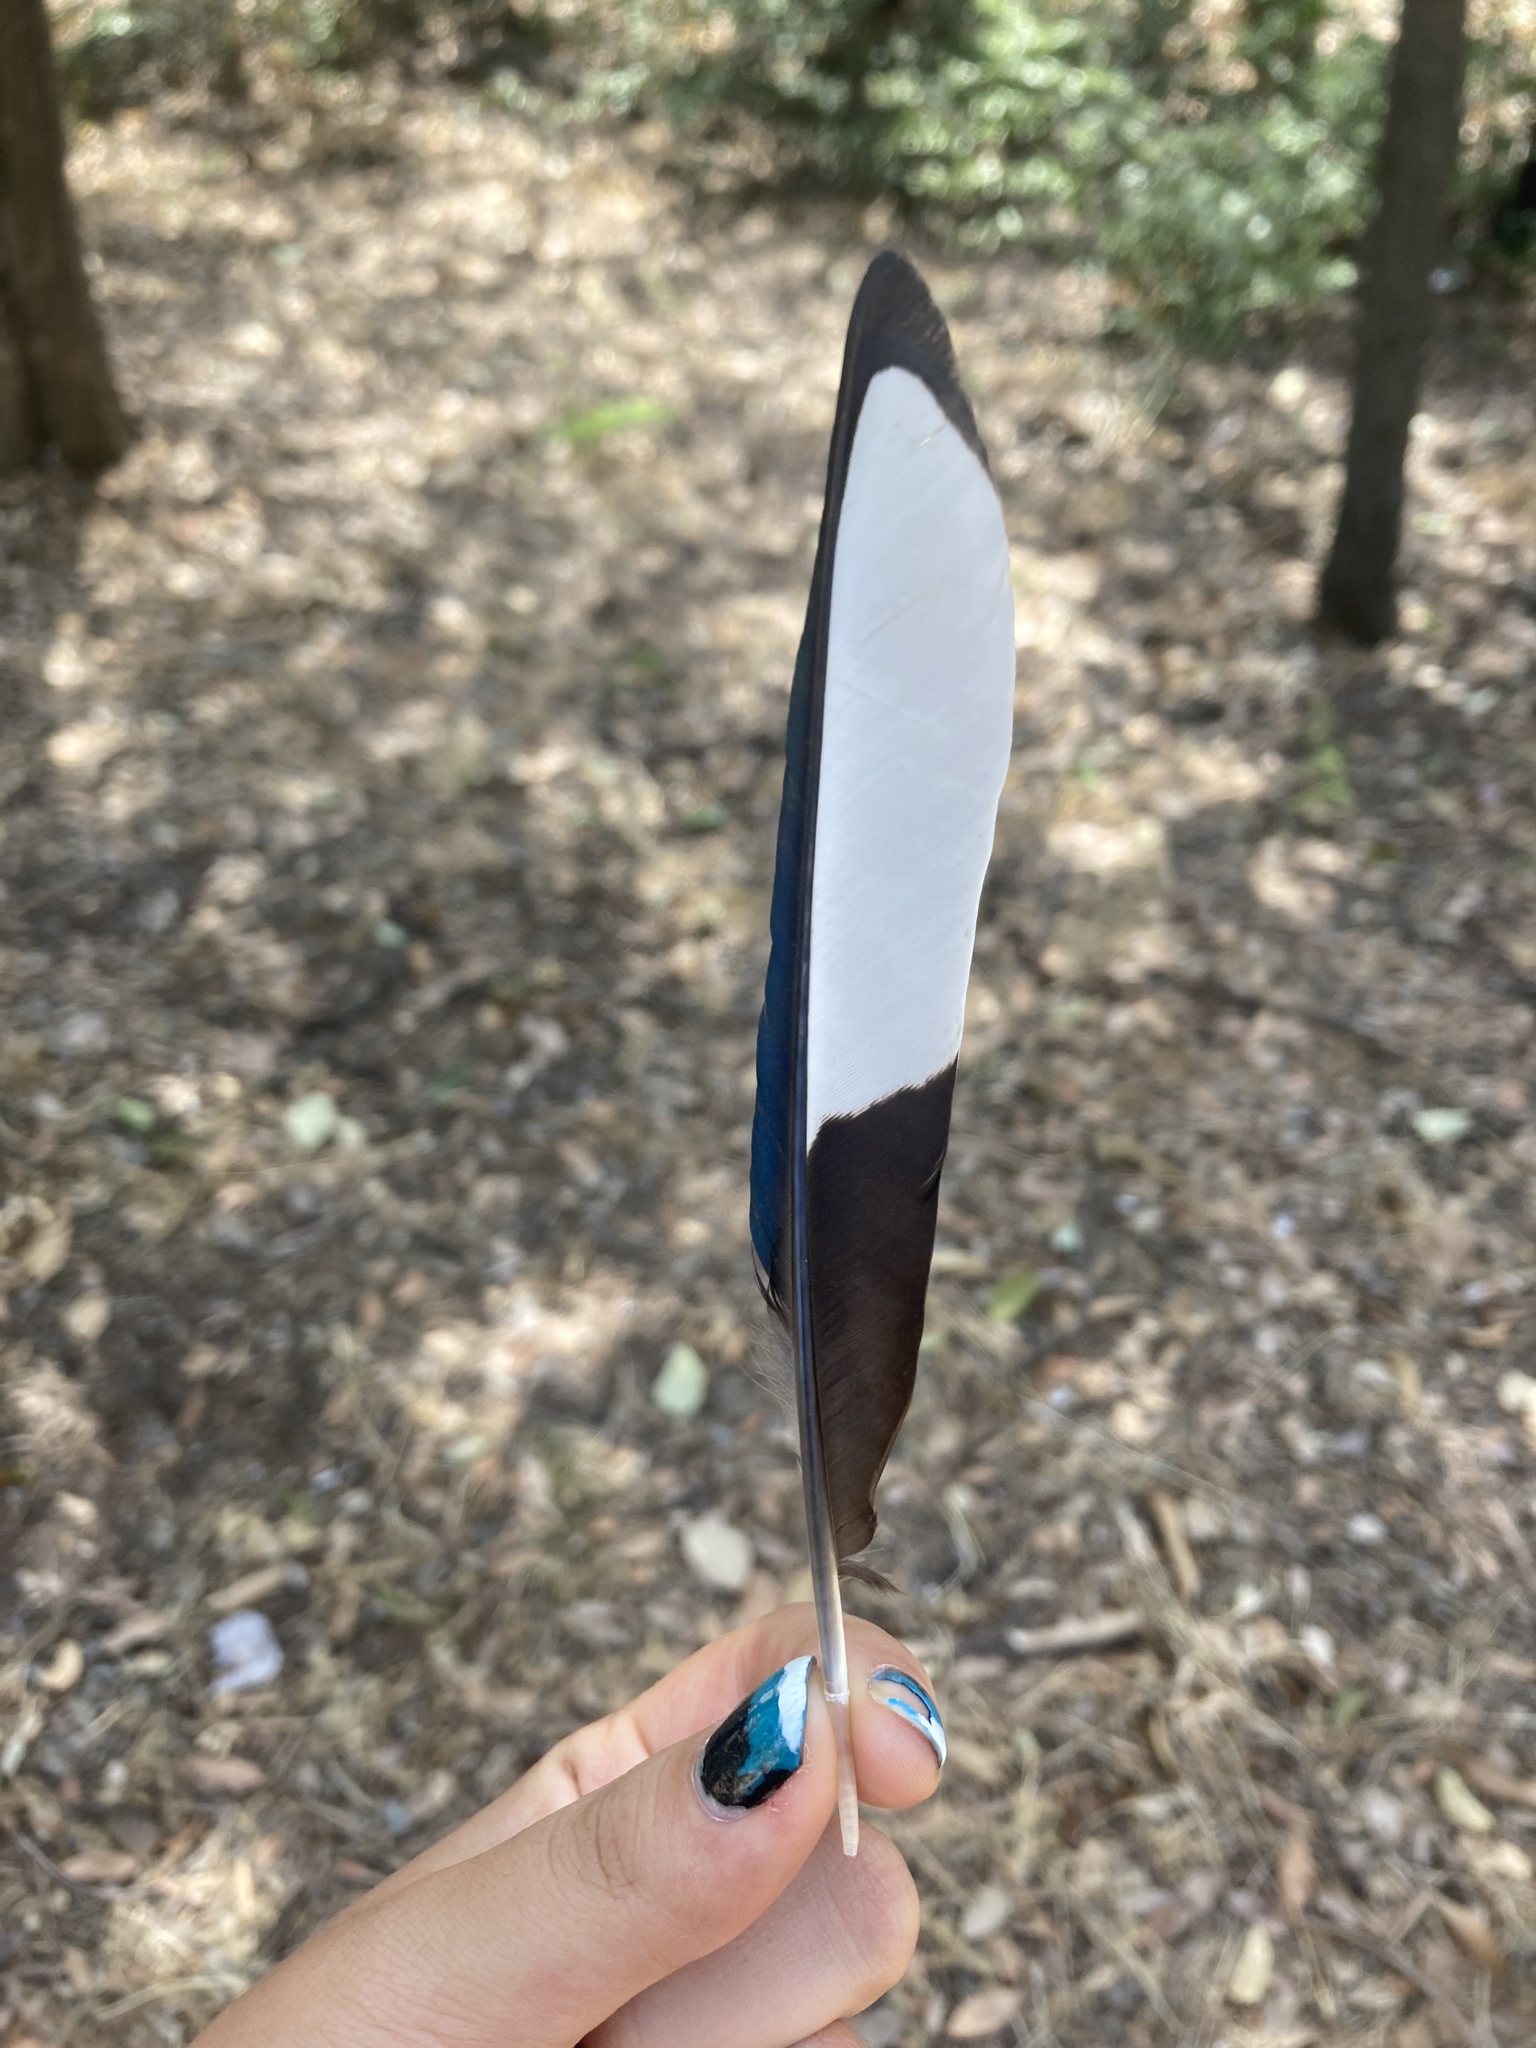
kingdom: Animalia
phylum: Chordata
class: Aves
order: Passeriformes
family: Corvidae
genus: Pica
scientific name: Pica pica
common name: Eurasian magpie
